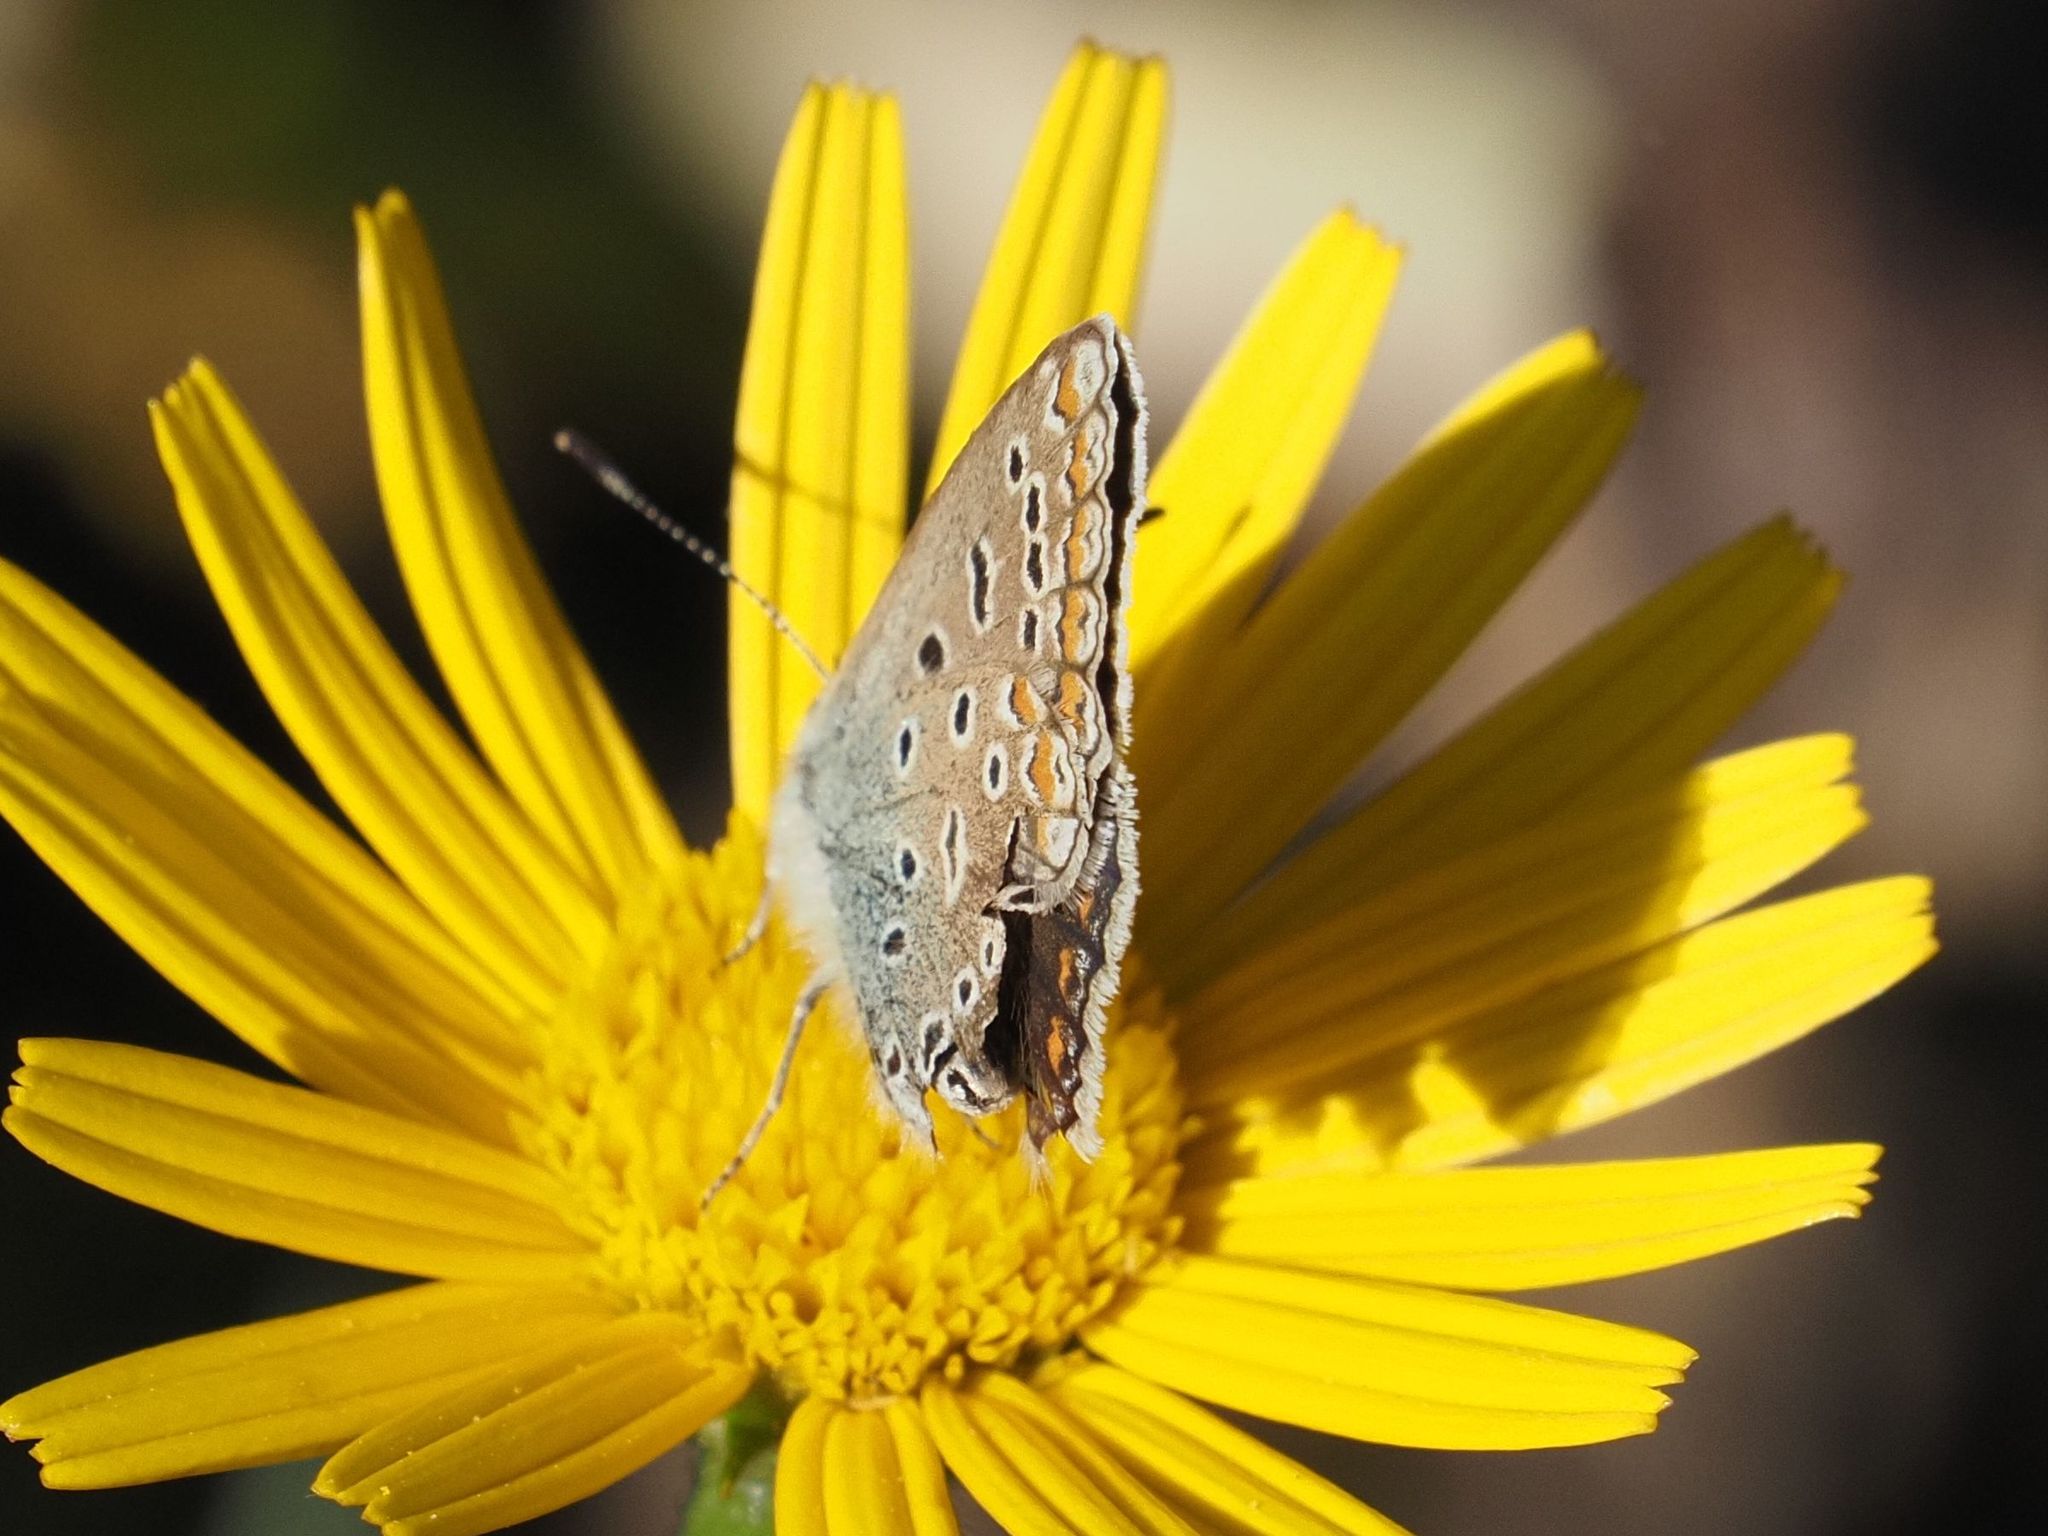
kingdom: Animalia
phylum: Arthropoda
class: Insecta
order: Lepidoptera
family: Lycaenidae
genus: Polyommatus
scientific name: Polyommatus icarus
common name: Common blue
